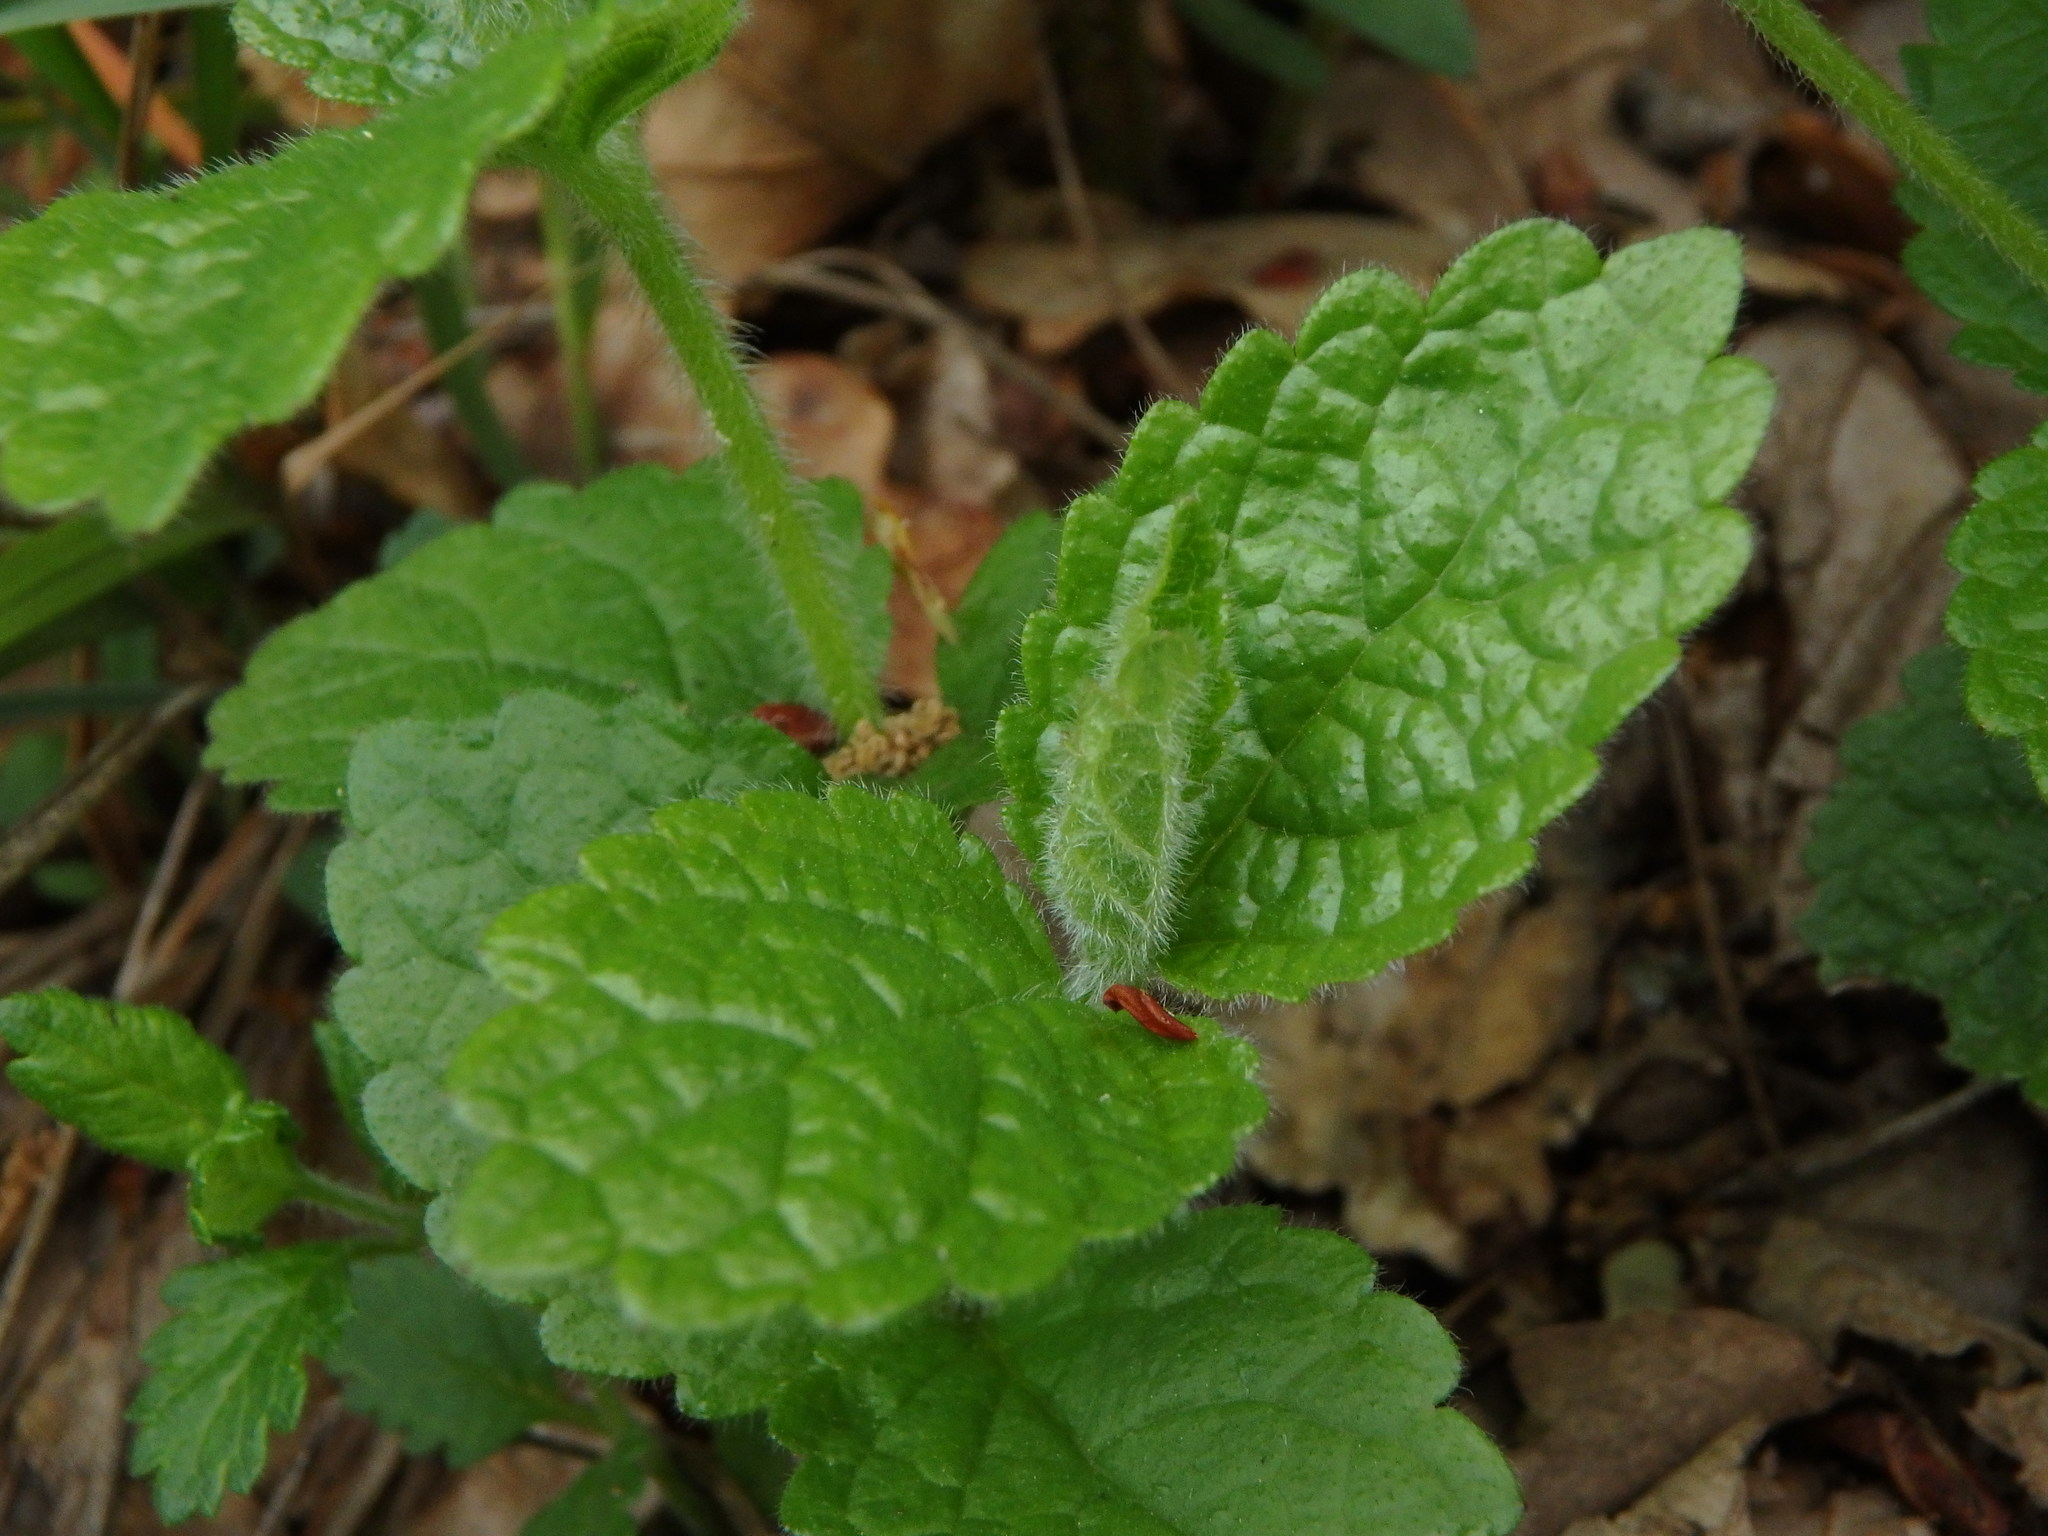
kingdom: Plantae
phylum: Tracheophyta
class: Magnoliopsida
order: Lamiales
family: Lamiaceae
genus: Melittis
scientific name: Melittis melissophyllum
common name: Bastard balm
